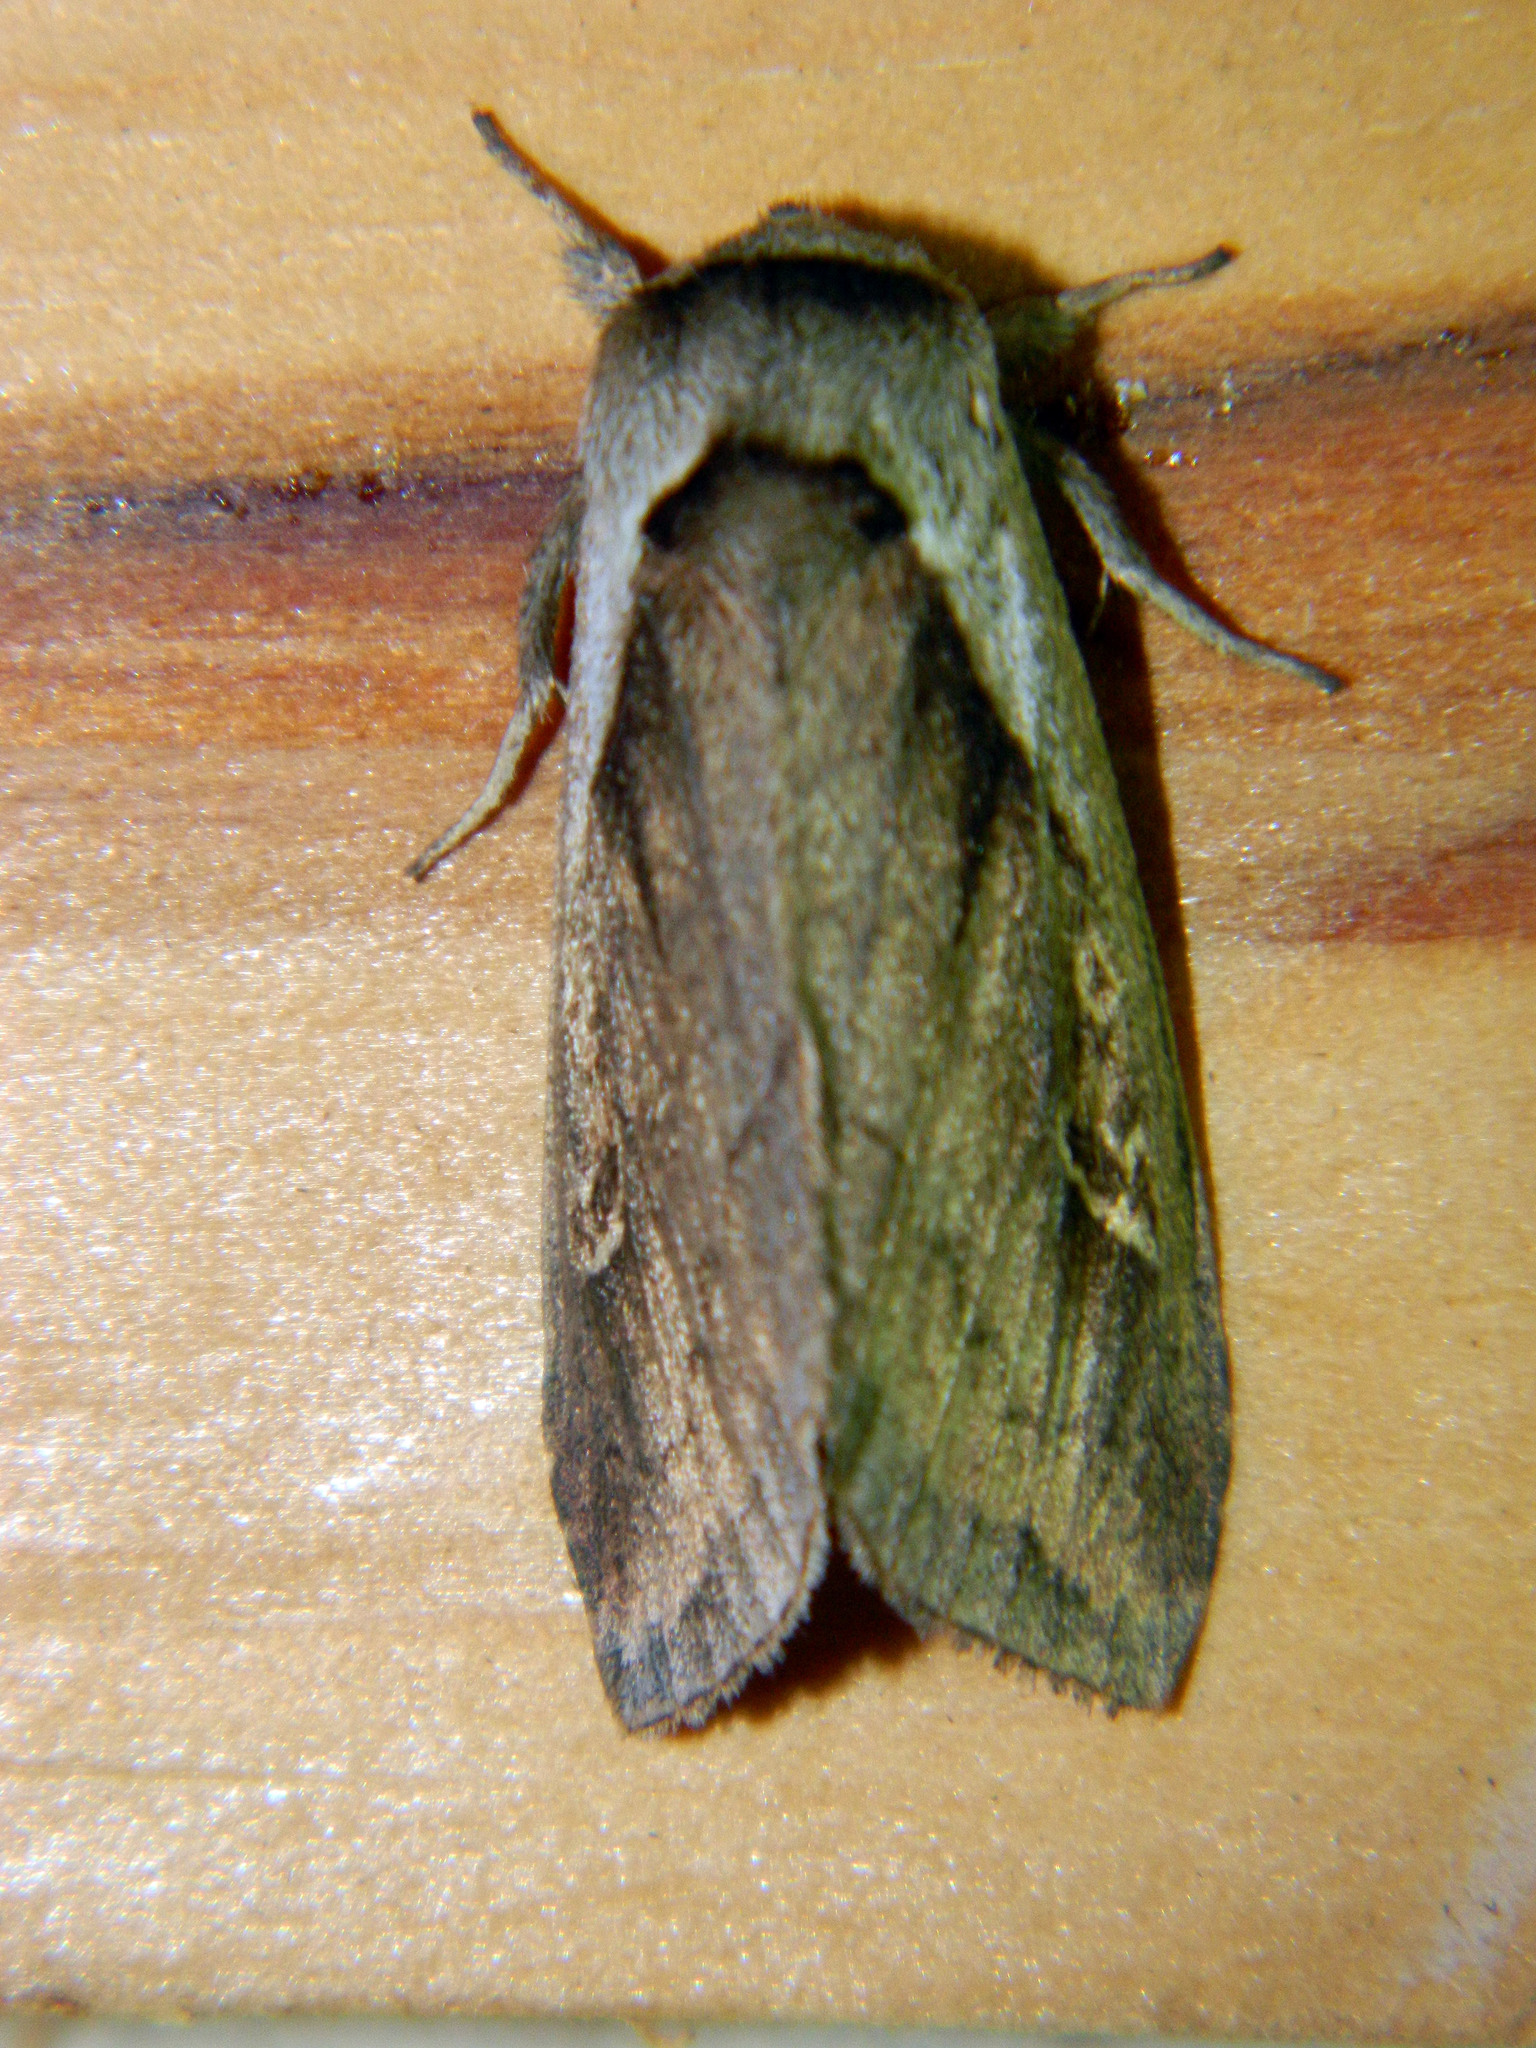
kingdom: Animalia
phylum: Arthropoda
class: Insecta
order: Lepidoptera
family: Noctuidae
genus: Bellura
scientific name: Bellura obliqua
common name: Cattail borer moth
